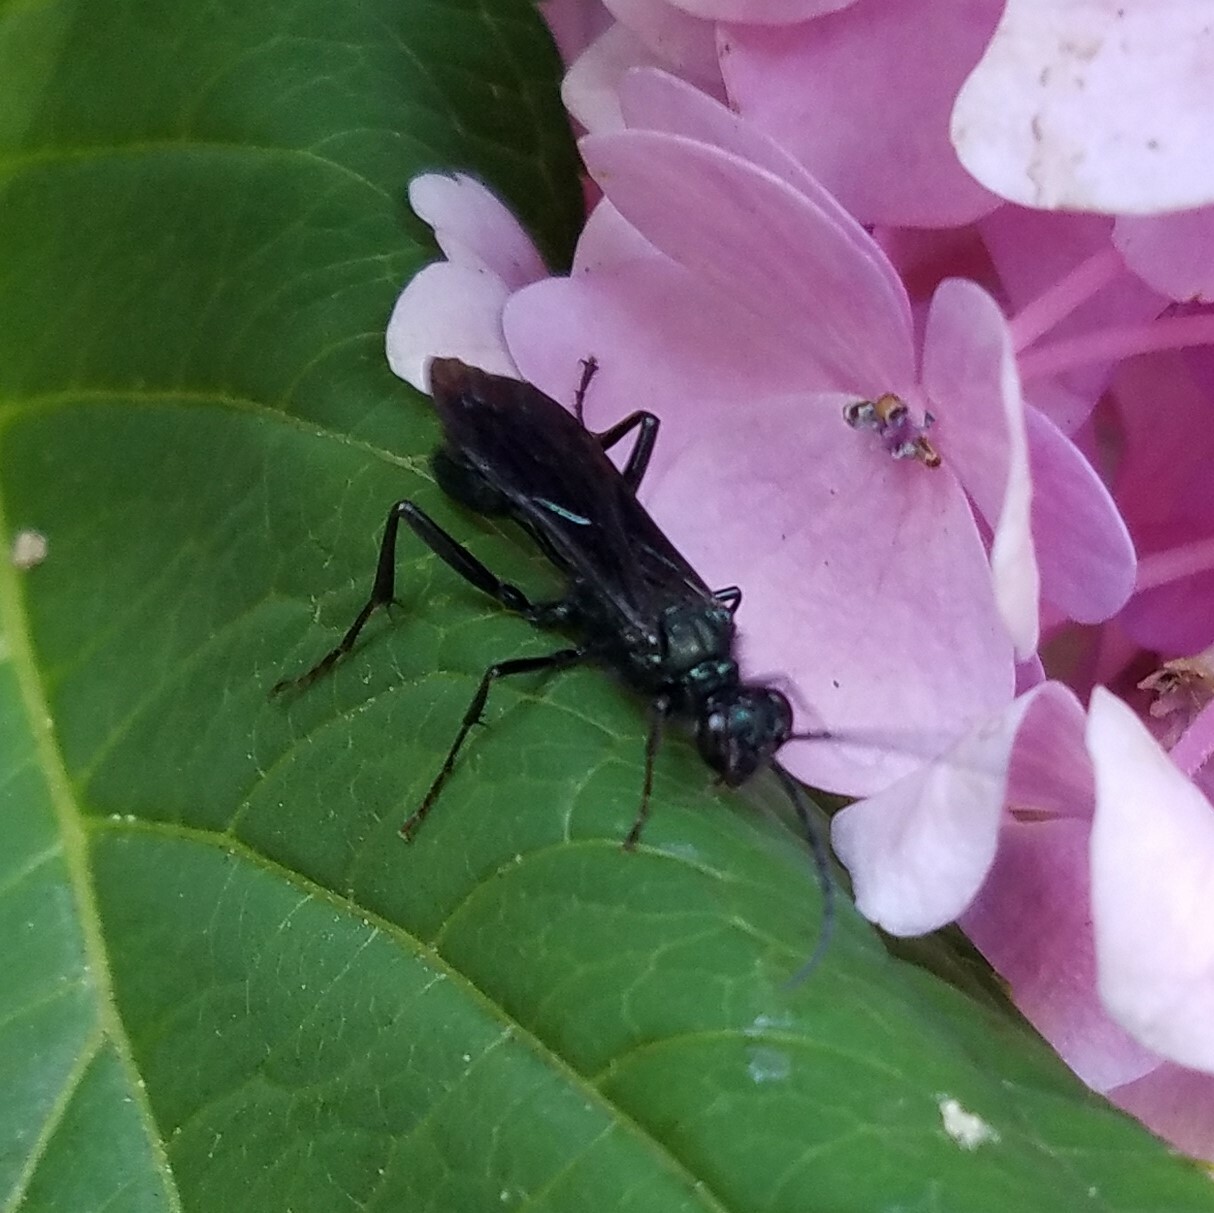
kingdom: Animalia
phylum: Arthropoda
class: Insecta
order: Hymenoptera
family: Sphecidae
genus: Chalybion
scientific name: Chalybion californicum
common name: Mud dauber
